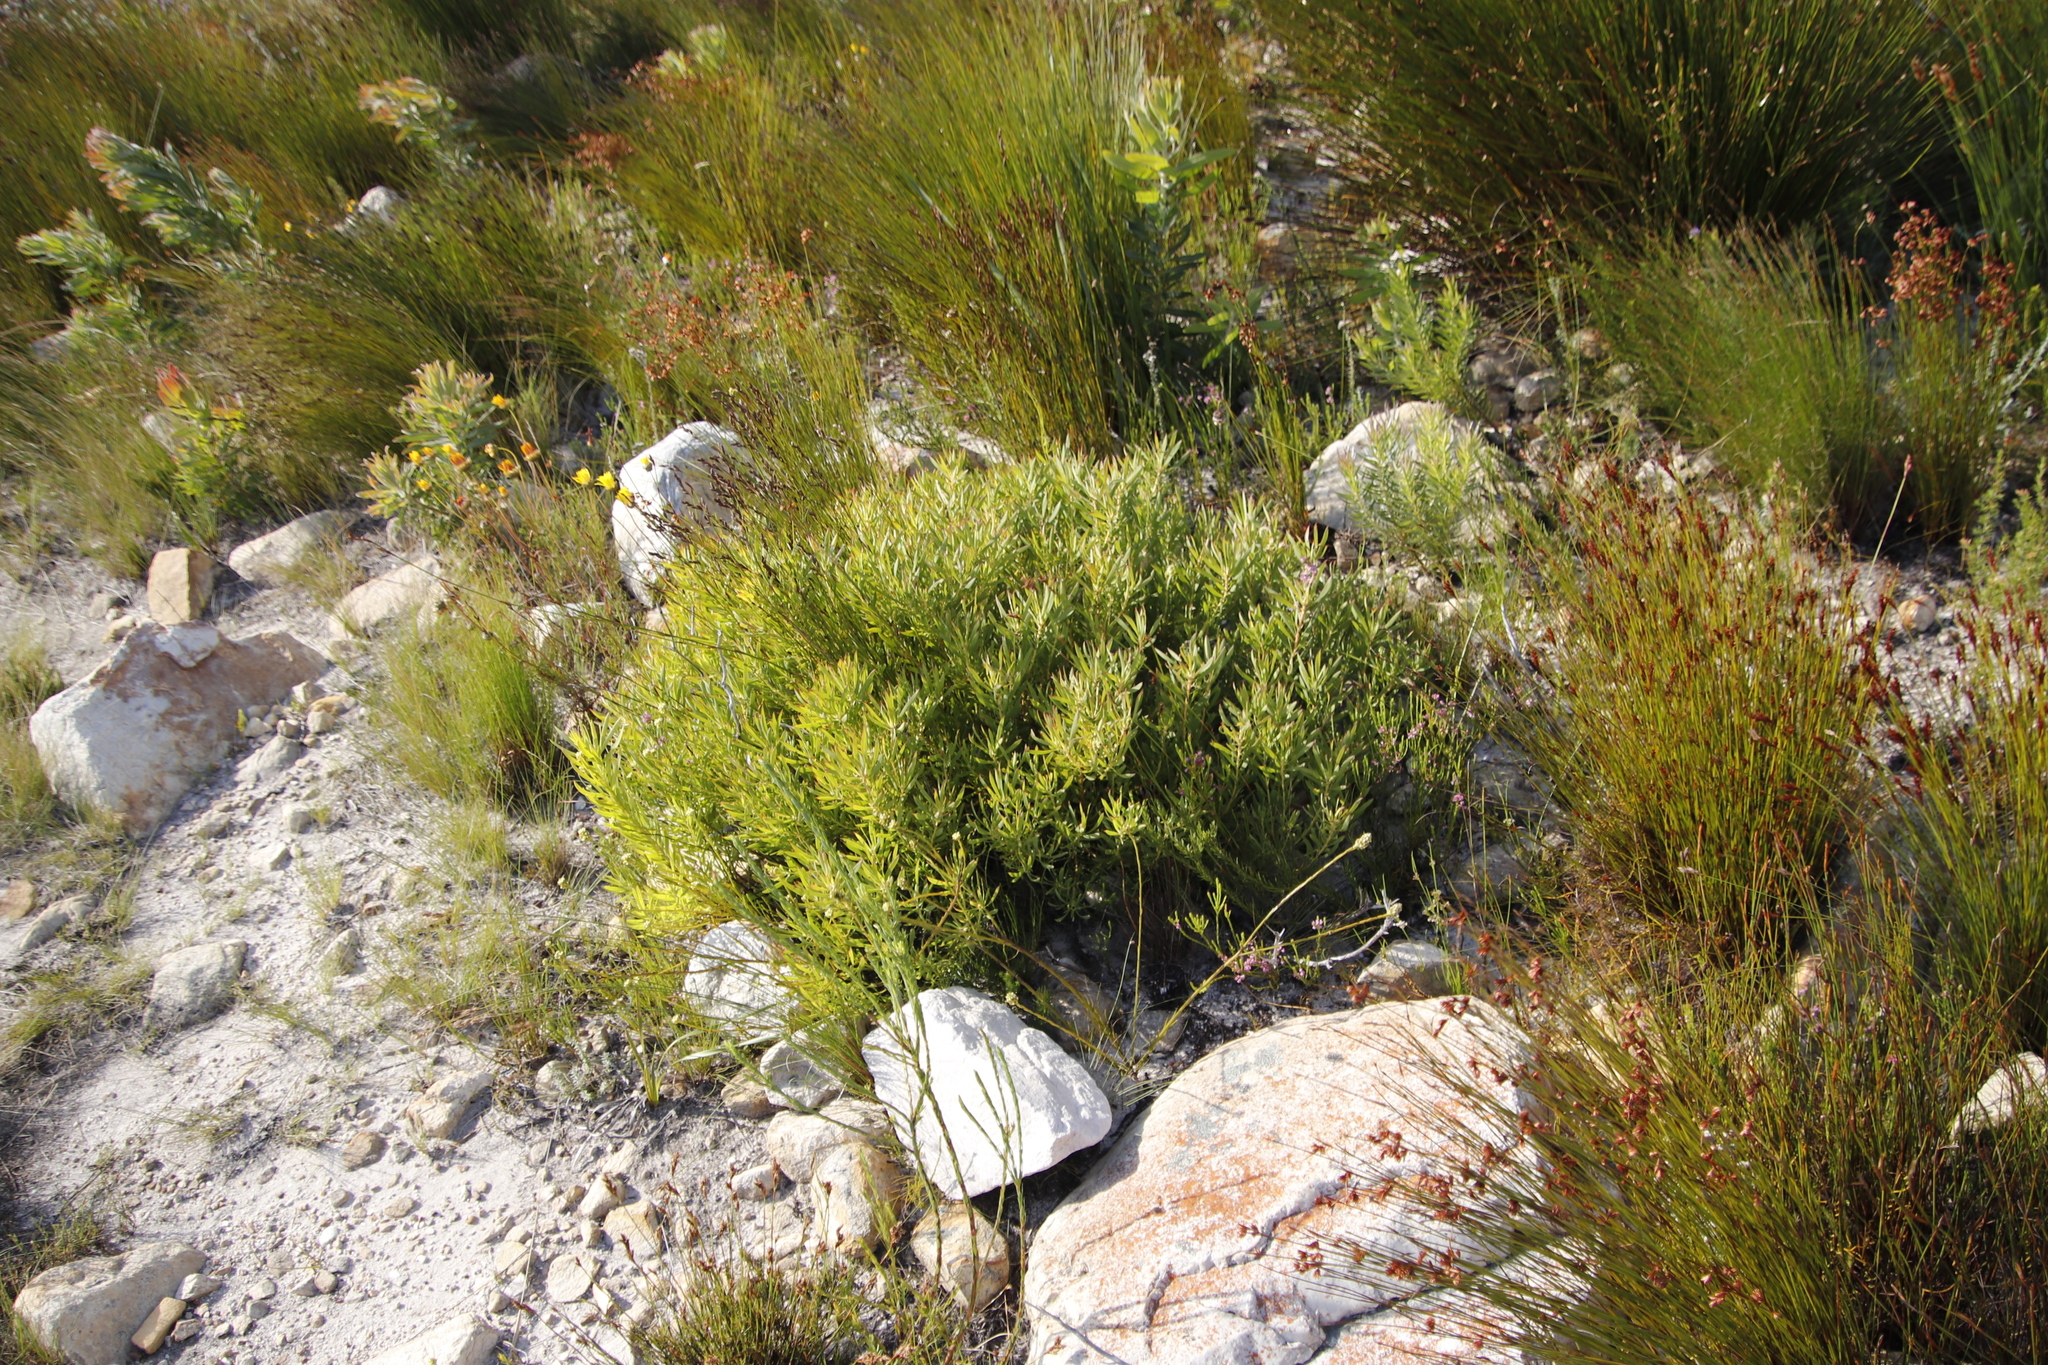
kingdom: Plantae
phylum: Tracheophyta
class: Magnoliopsida
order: Proteales
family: Proteaceae
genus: Leucadendron
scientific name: Leucadendron salignum
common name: Common sunshine conebush
